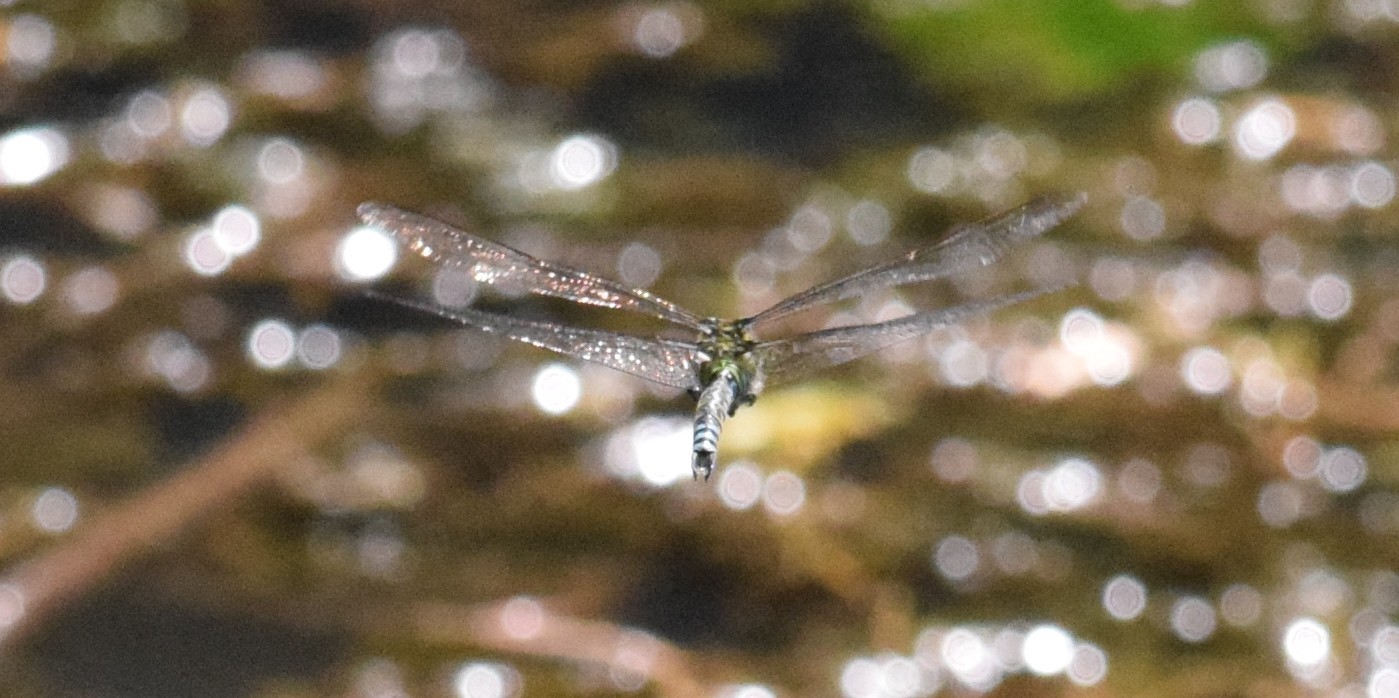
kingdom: Animalia
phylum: Arthropoda
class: Insecta
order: Odonata
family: Aeshnidae
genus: Aeshna
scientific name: Aeshna cyanea
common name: Southern hawker
